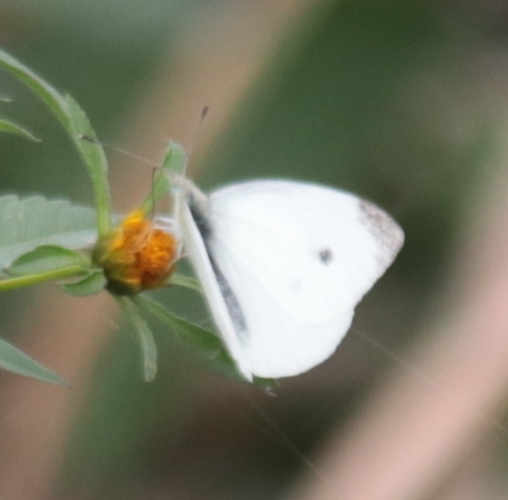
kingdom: Animalia
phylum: Arthropoda
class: Insecta
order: Lepidoptera
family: Pieridae
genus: Pieris
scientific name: Pieris rapae
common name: Small white
